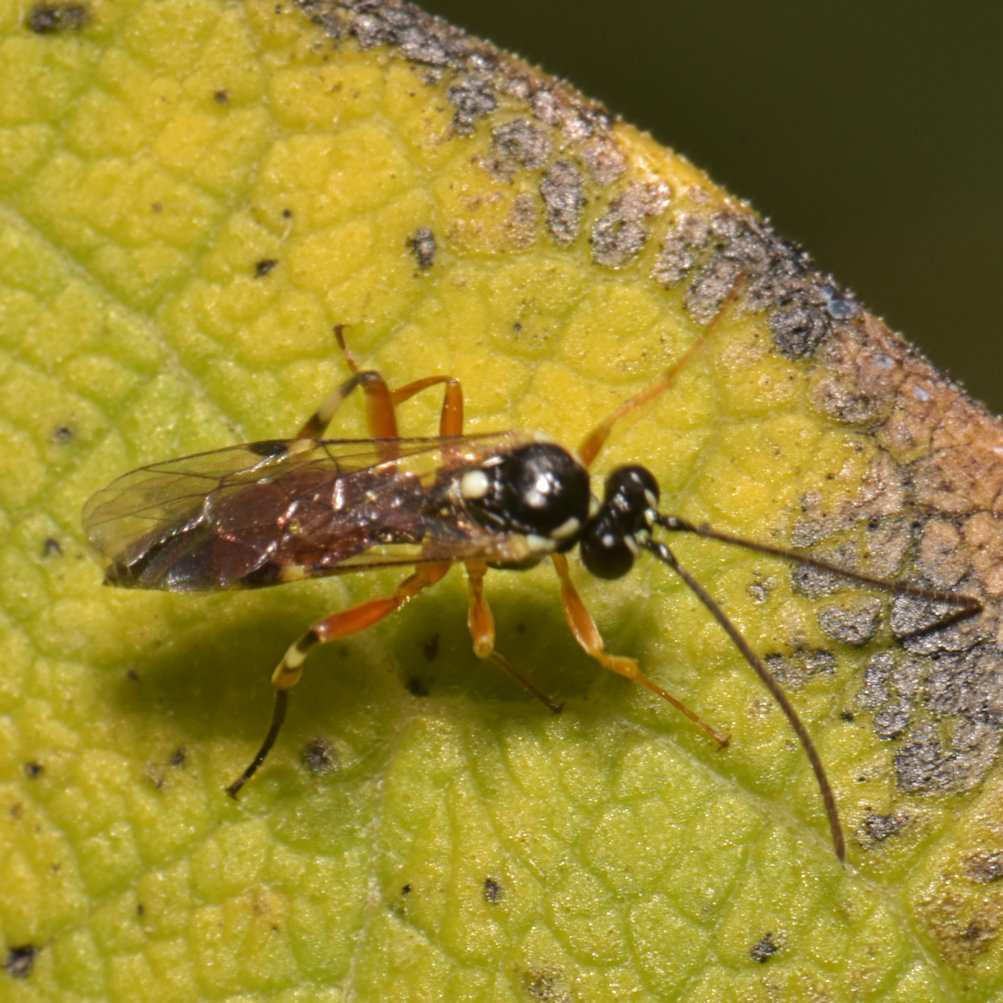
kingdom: Animalia
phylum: Arthropoda
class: Insecta
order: Hymenoptera
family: Ichneumonidae
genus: Diplazon
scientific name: Diplazon laetatorius
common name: Parasitoid wasp
